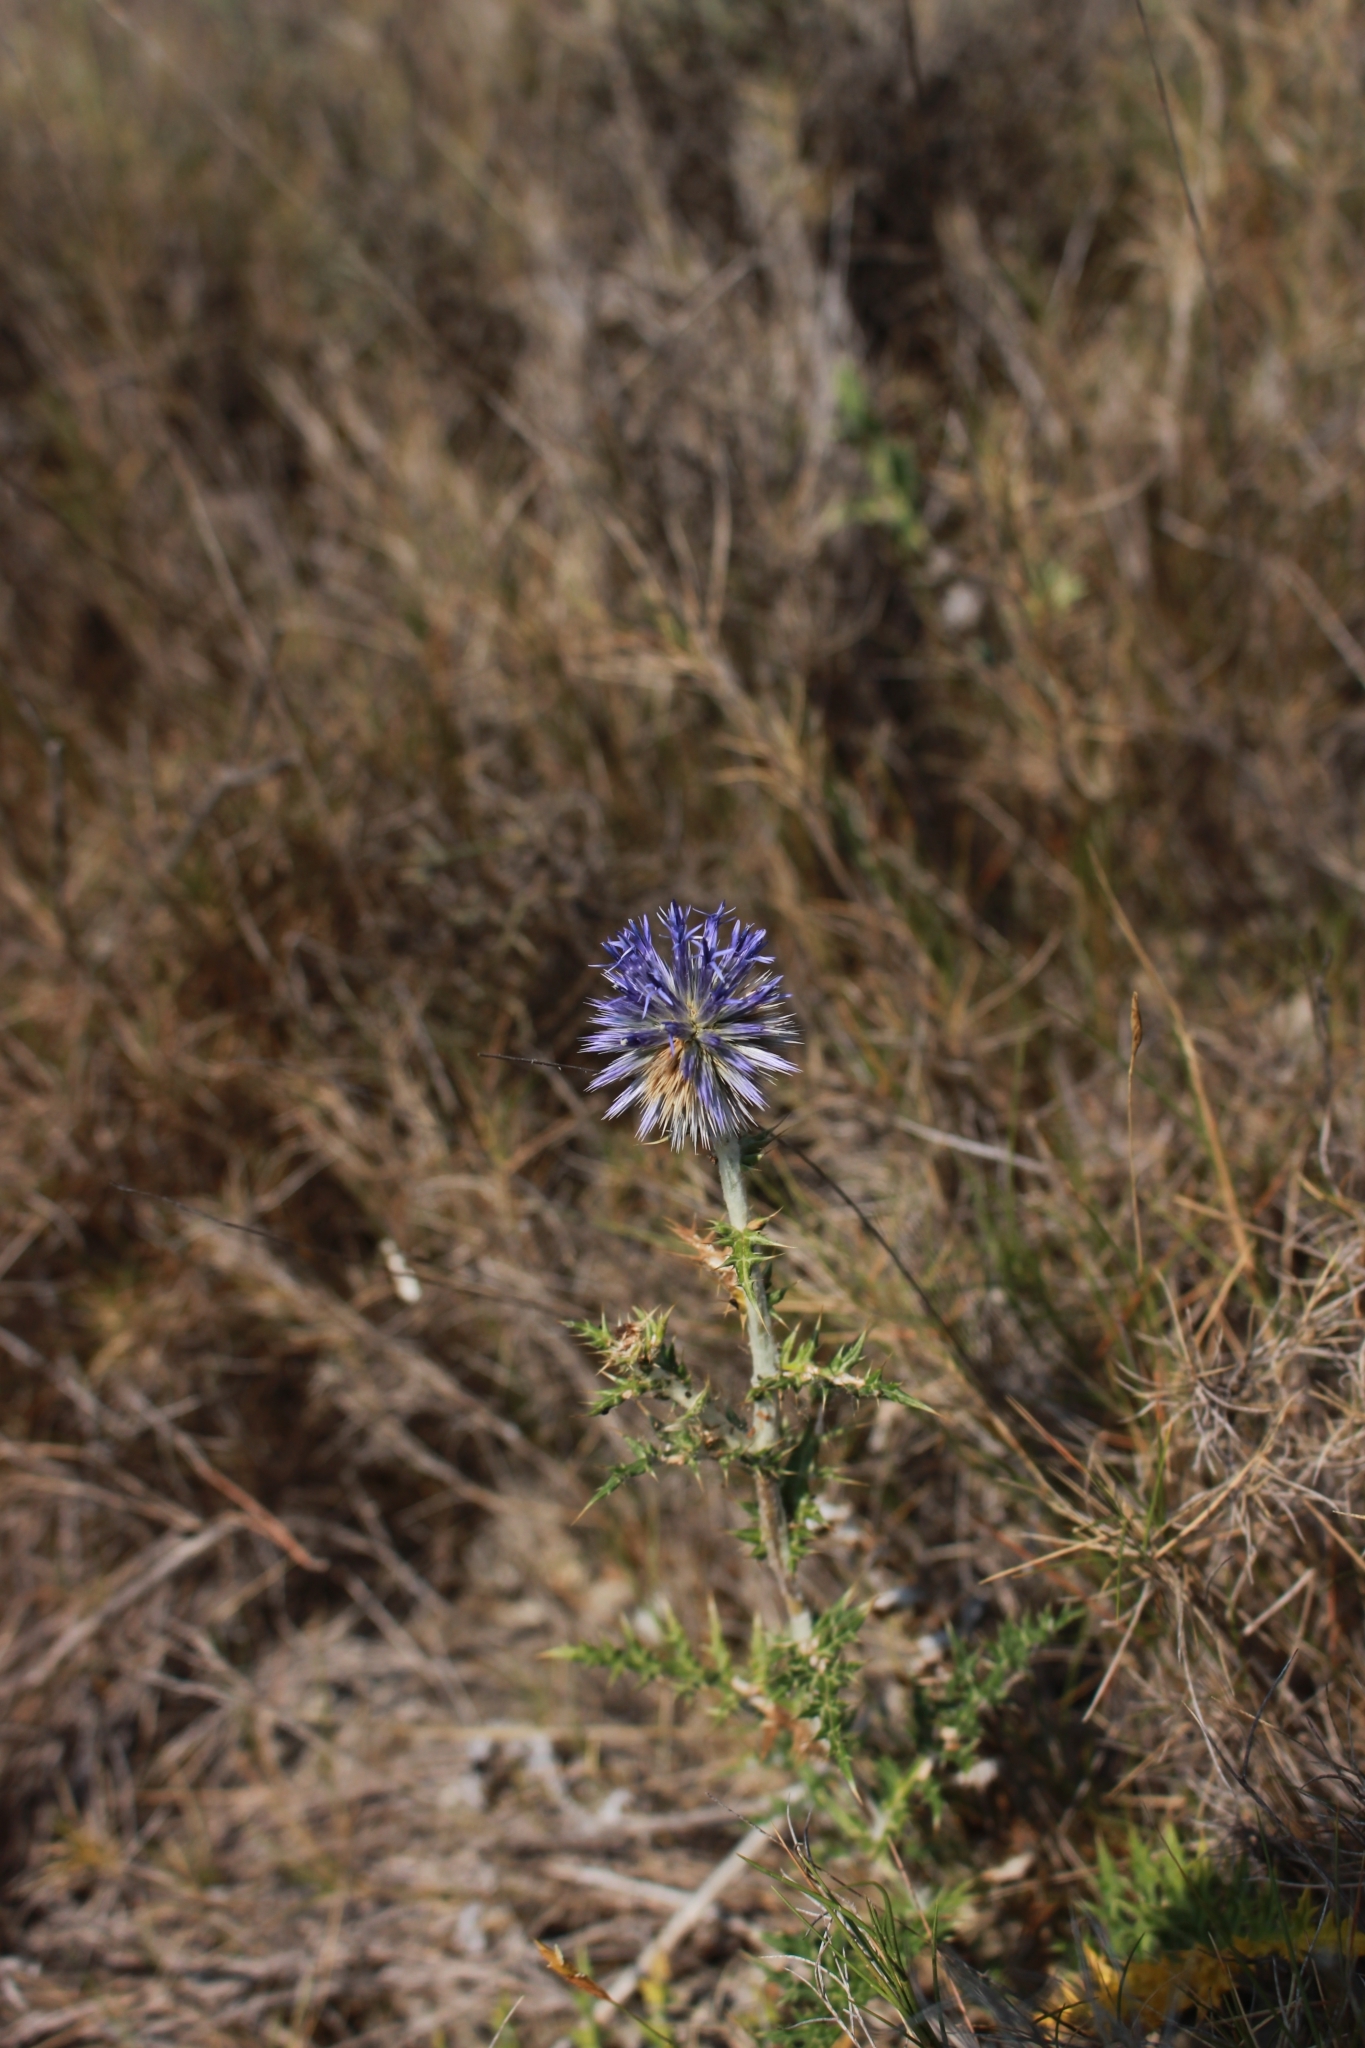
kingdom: Plantae
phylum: Tracheophyta
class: Magnoliopsida
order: Asterales
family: Asteraceae
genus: Echinops
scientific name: Echinops ritro
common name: Globe thistle
